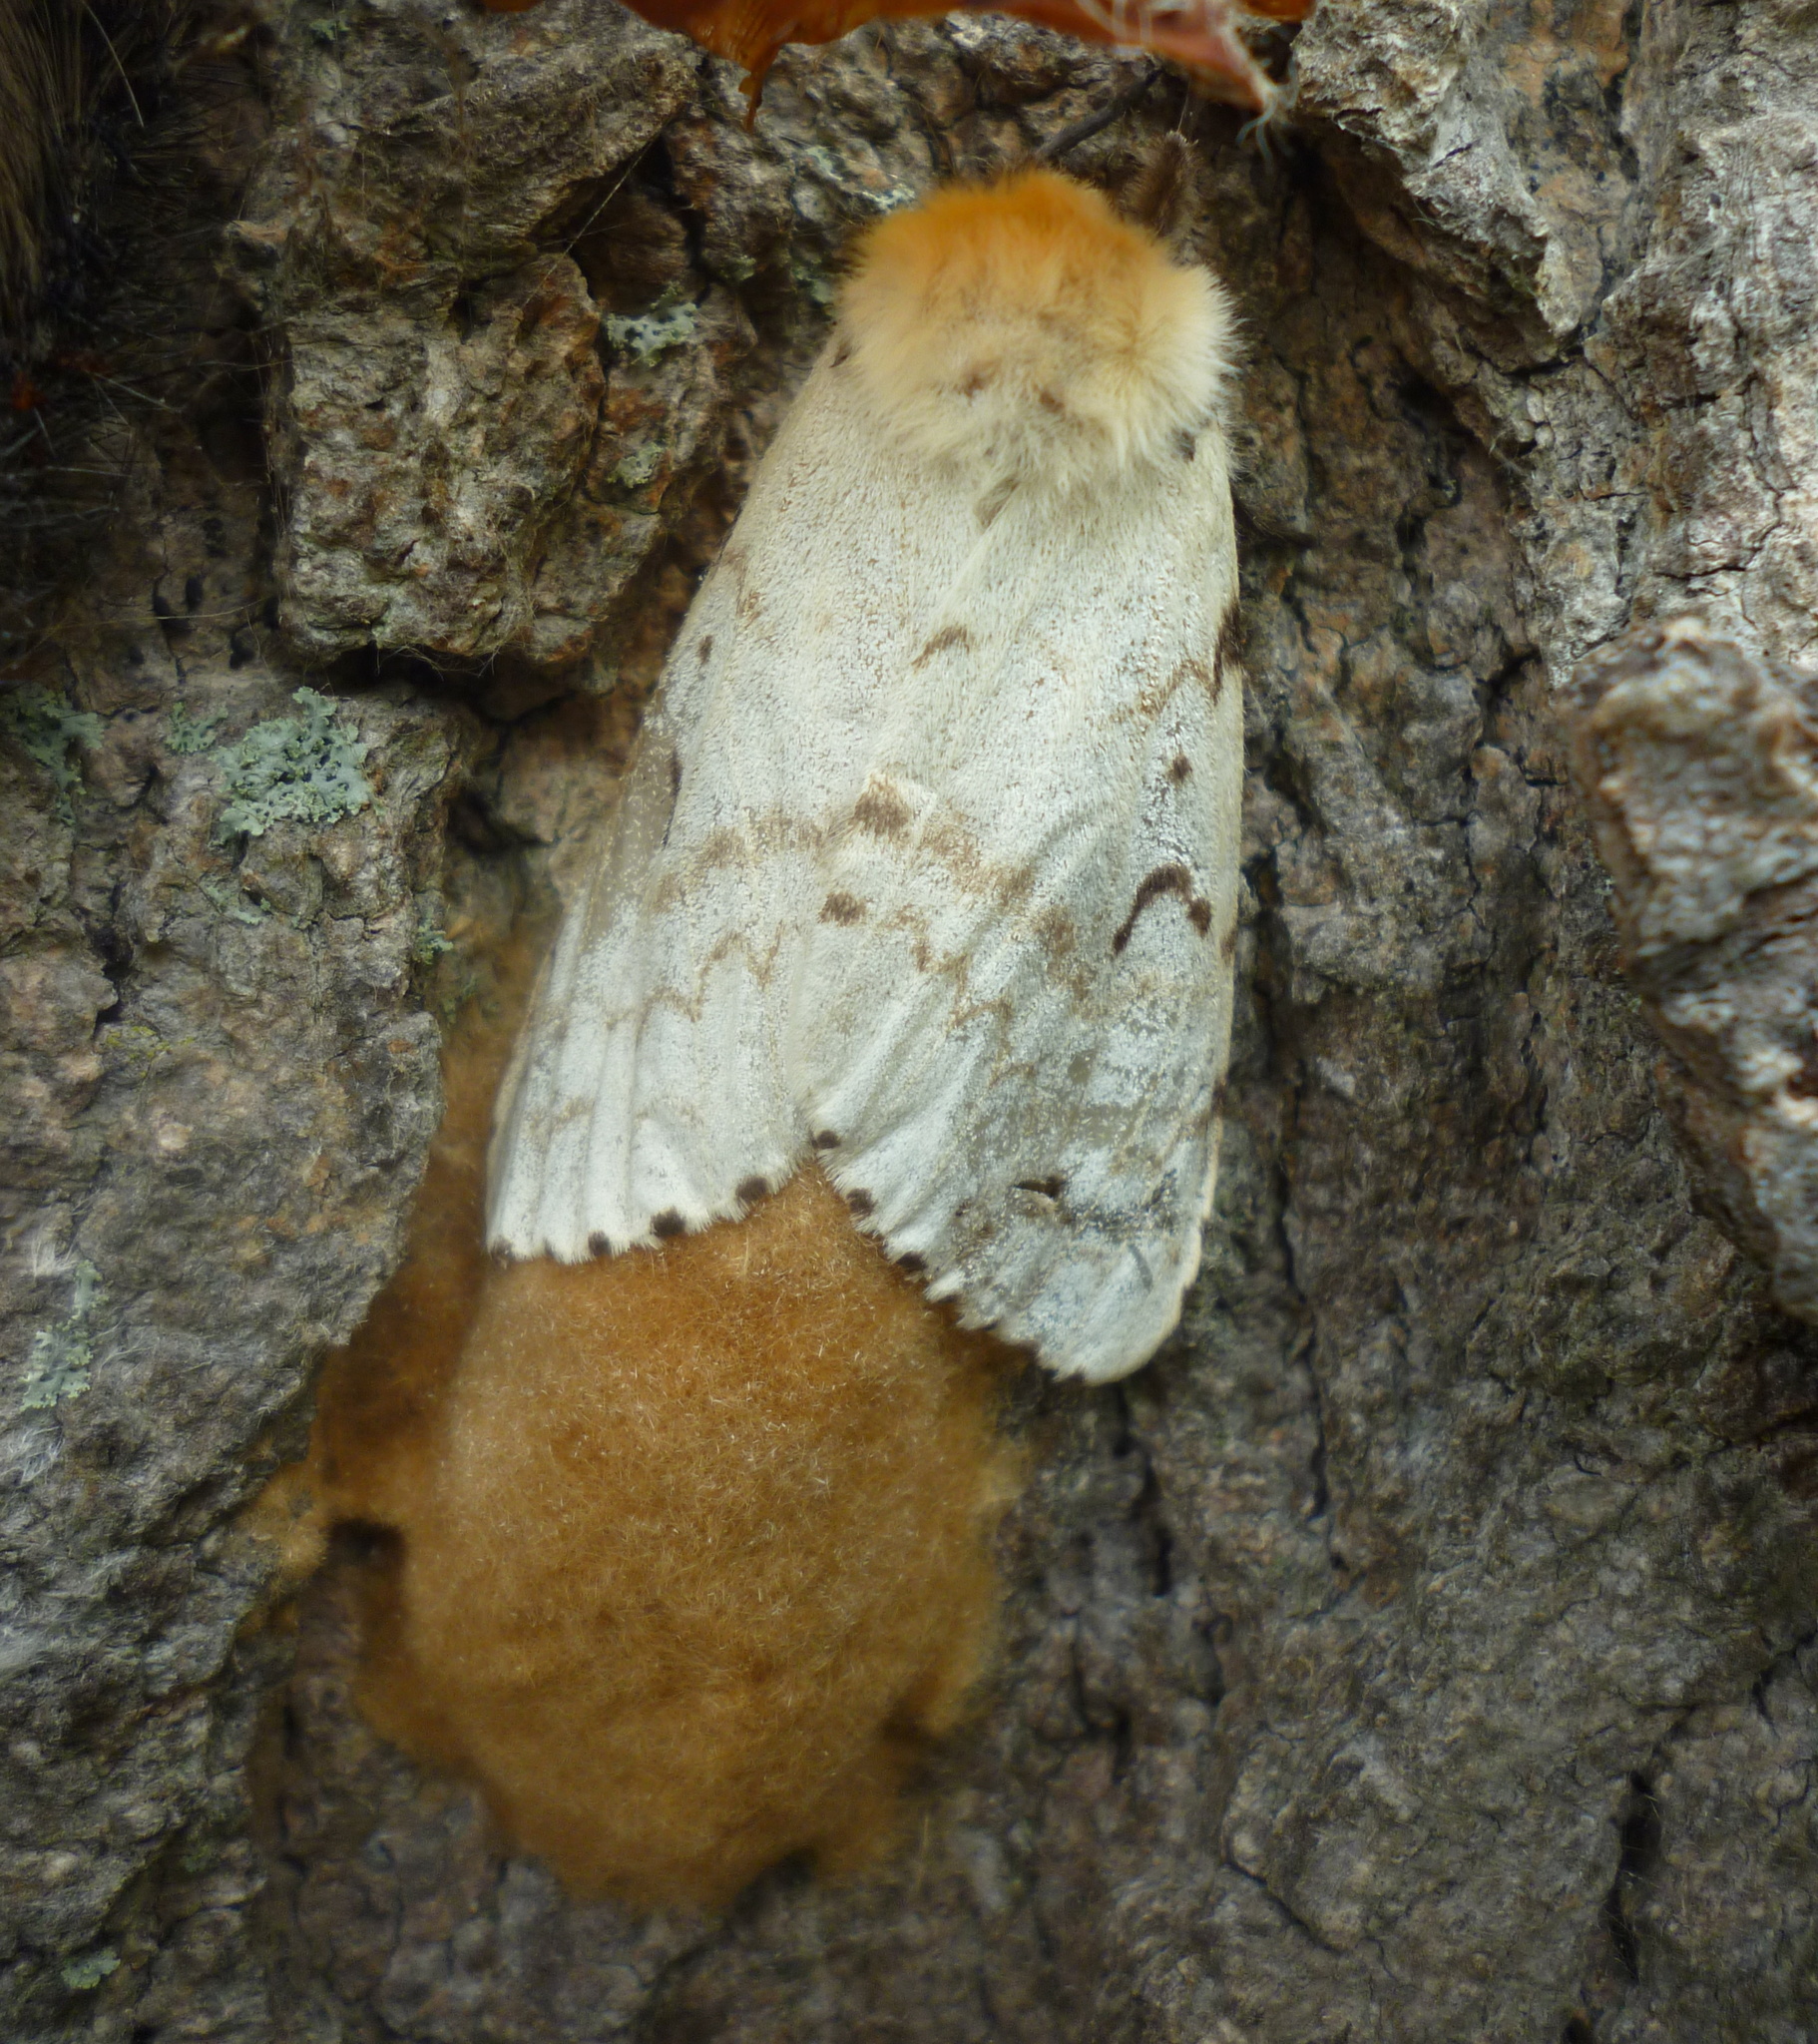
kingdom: Animalia
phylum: Arthropoda
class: Insecta
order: Lepidoptera
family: Erebidae
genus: Lymantria
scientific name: Lymantria dispar
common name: Gypsy moth
